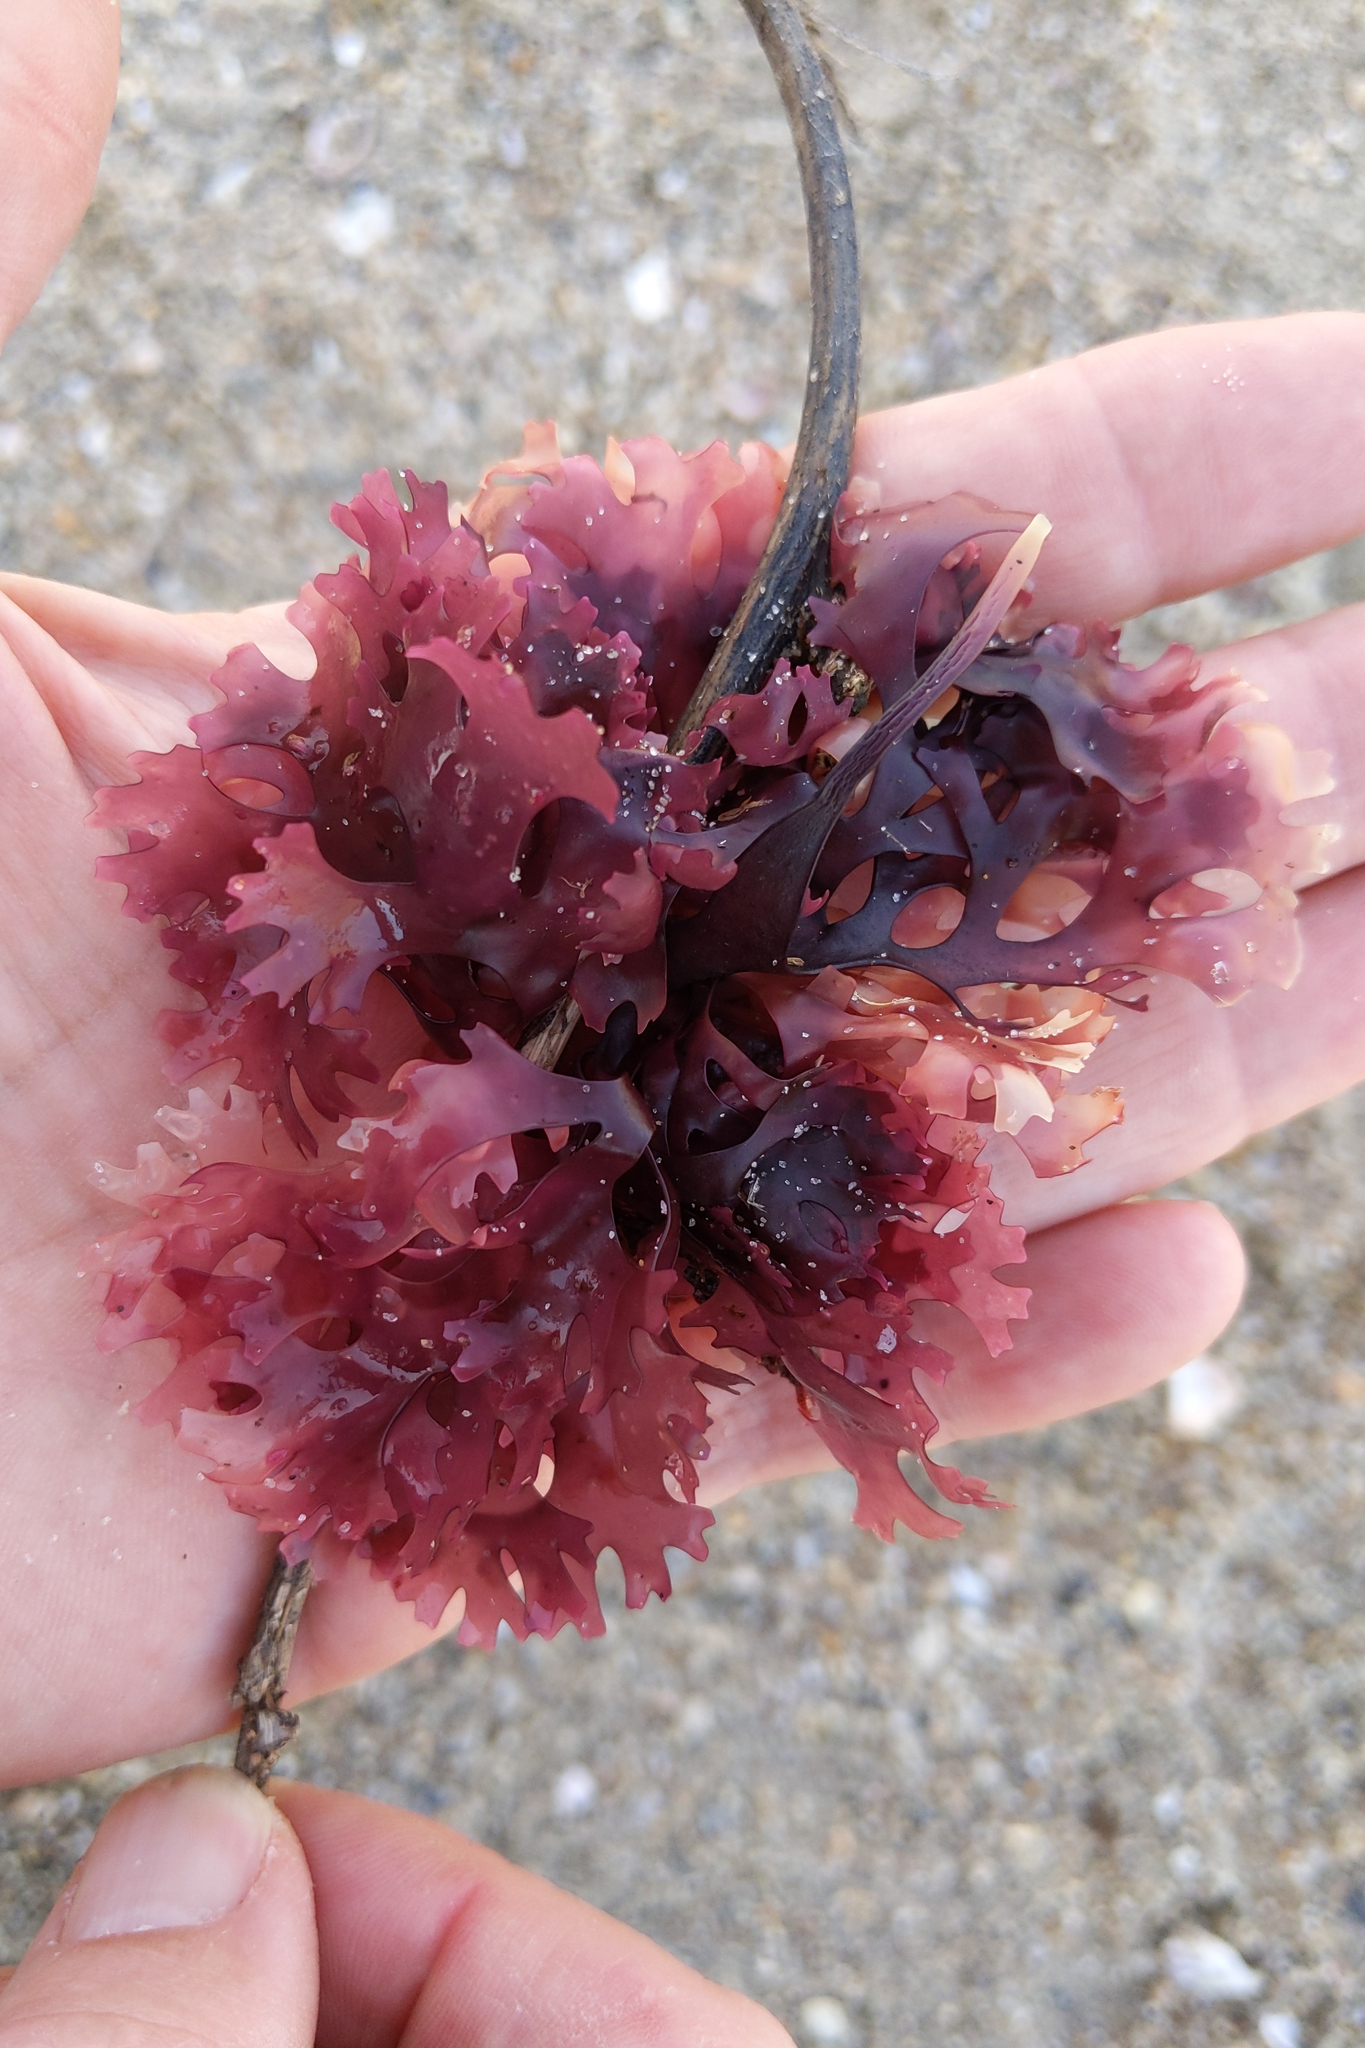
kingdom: Plantae
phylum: Rhodophyta
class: Florideophyceae
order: Gigartinales
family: Gigartinaceae
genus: Chondrus
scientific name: Chondrus crispus
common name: Carrageen
